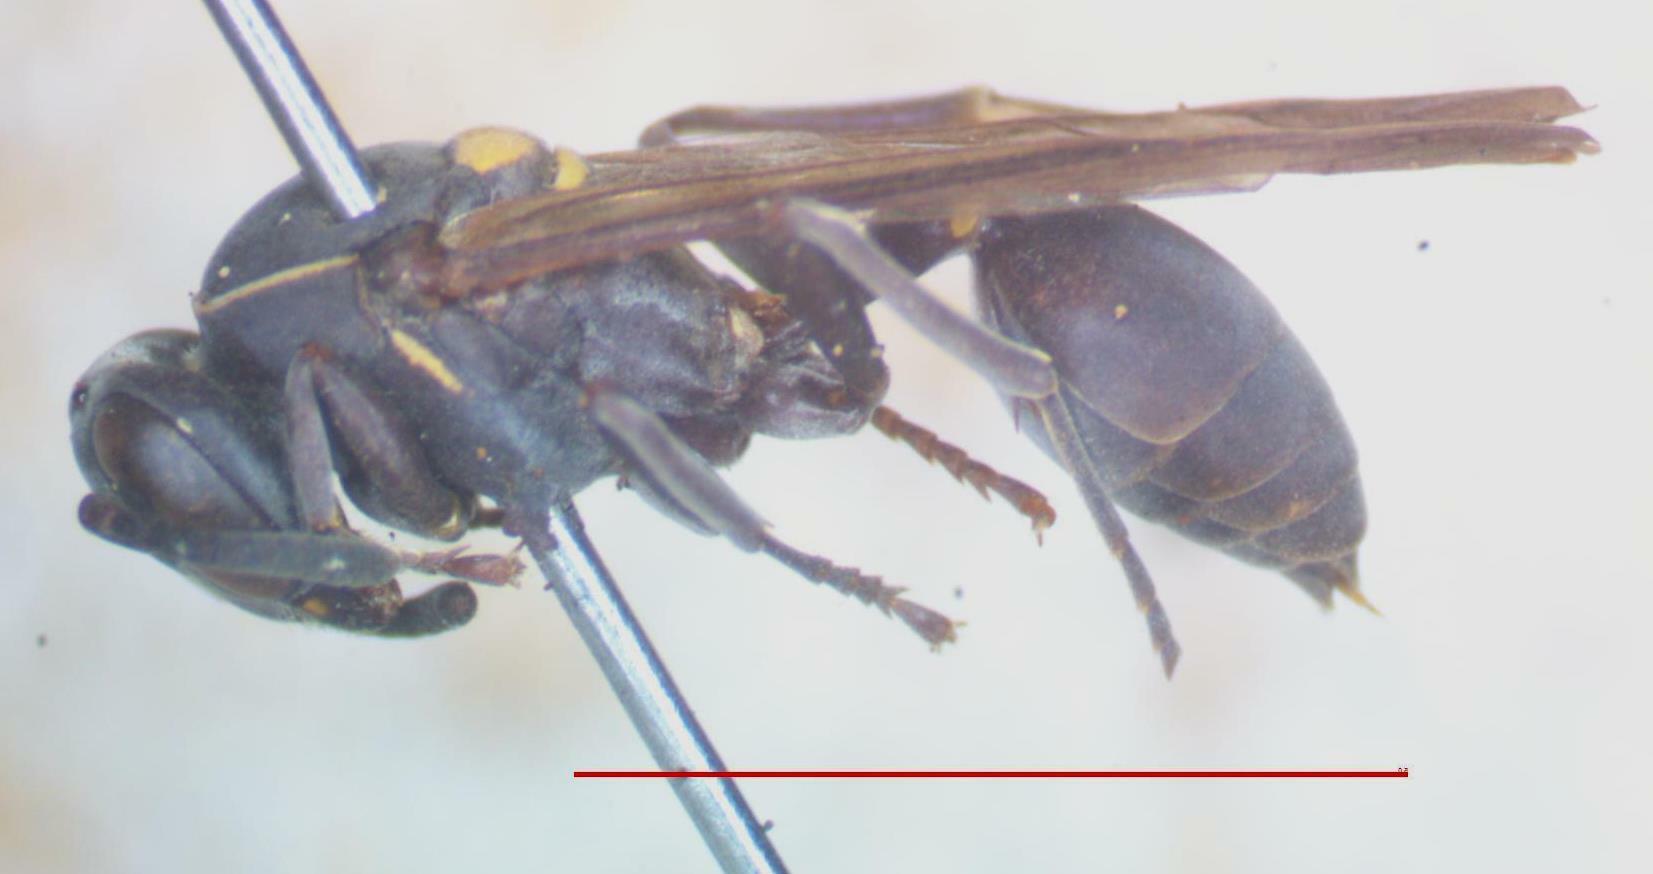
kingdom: Animalia
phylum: Arthropoda
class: Insecta
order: Hymenoptera
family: Eumenidae
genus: Polybia
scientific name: Polybia paulista
